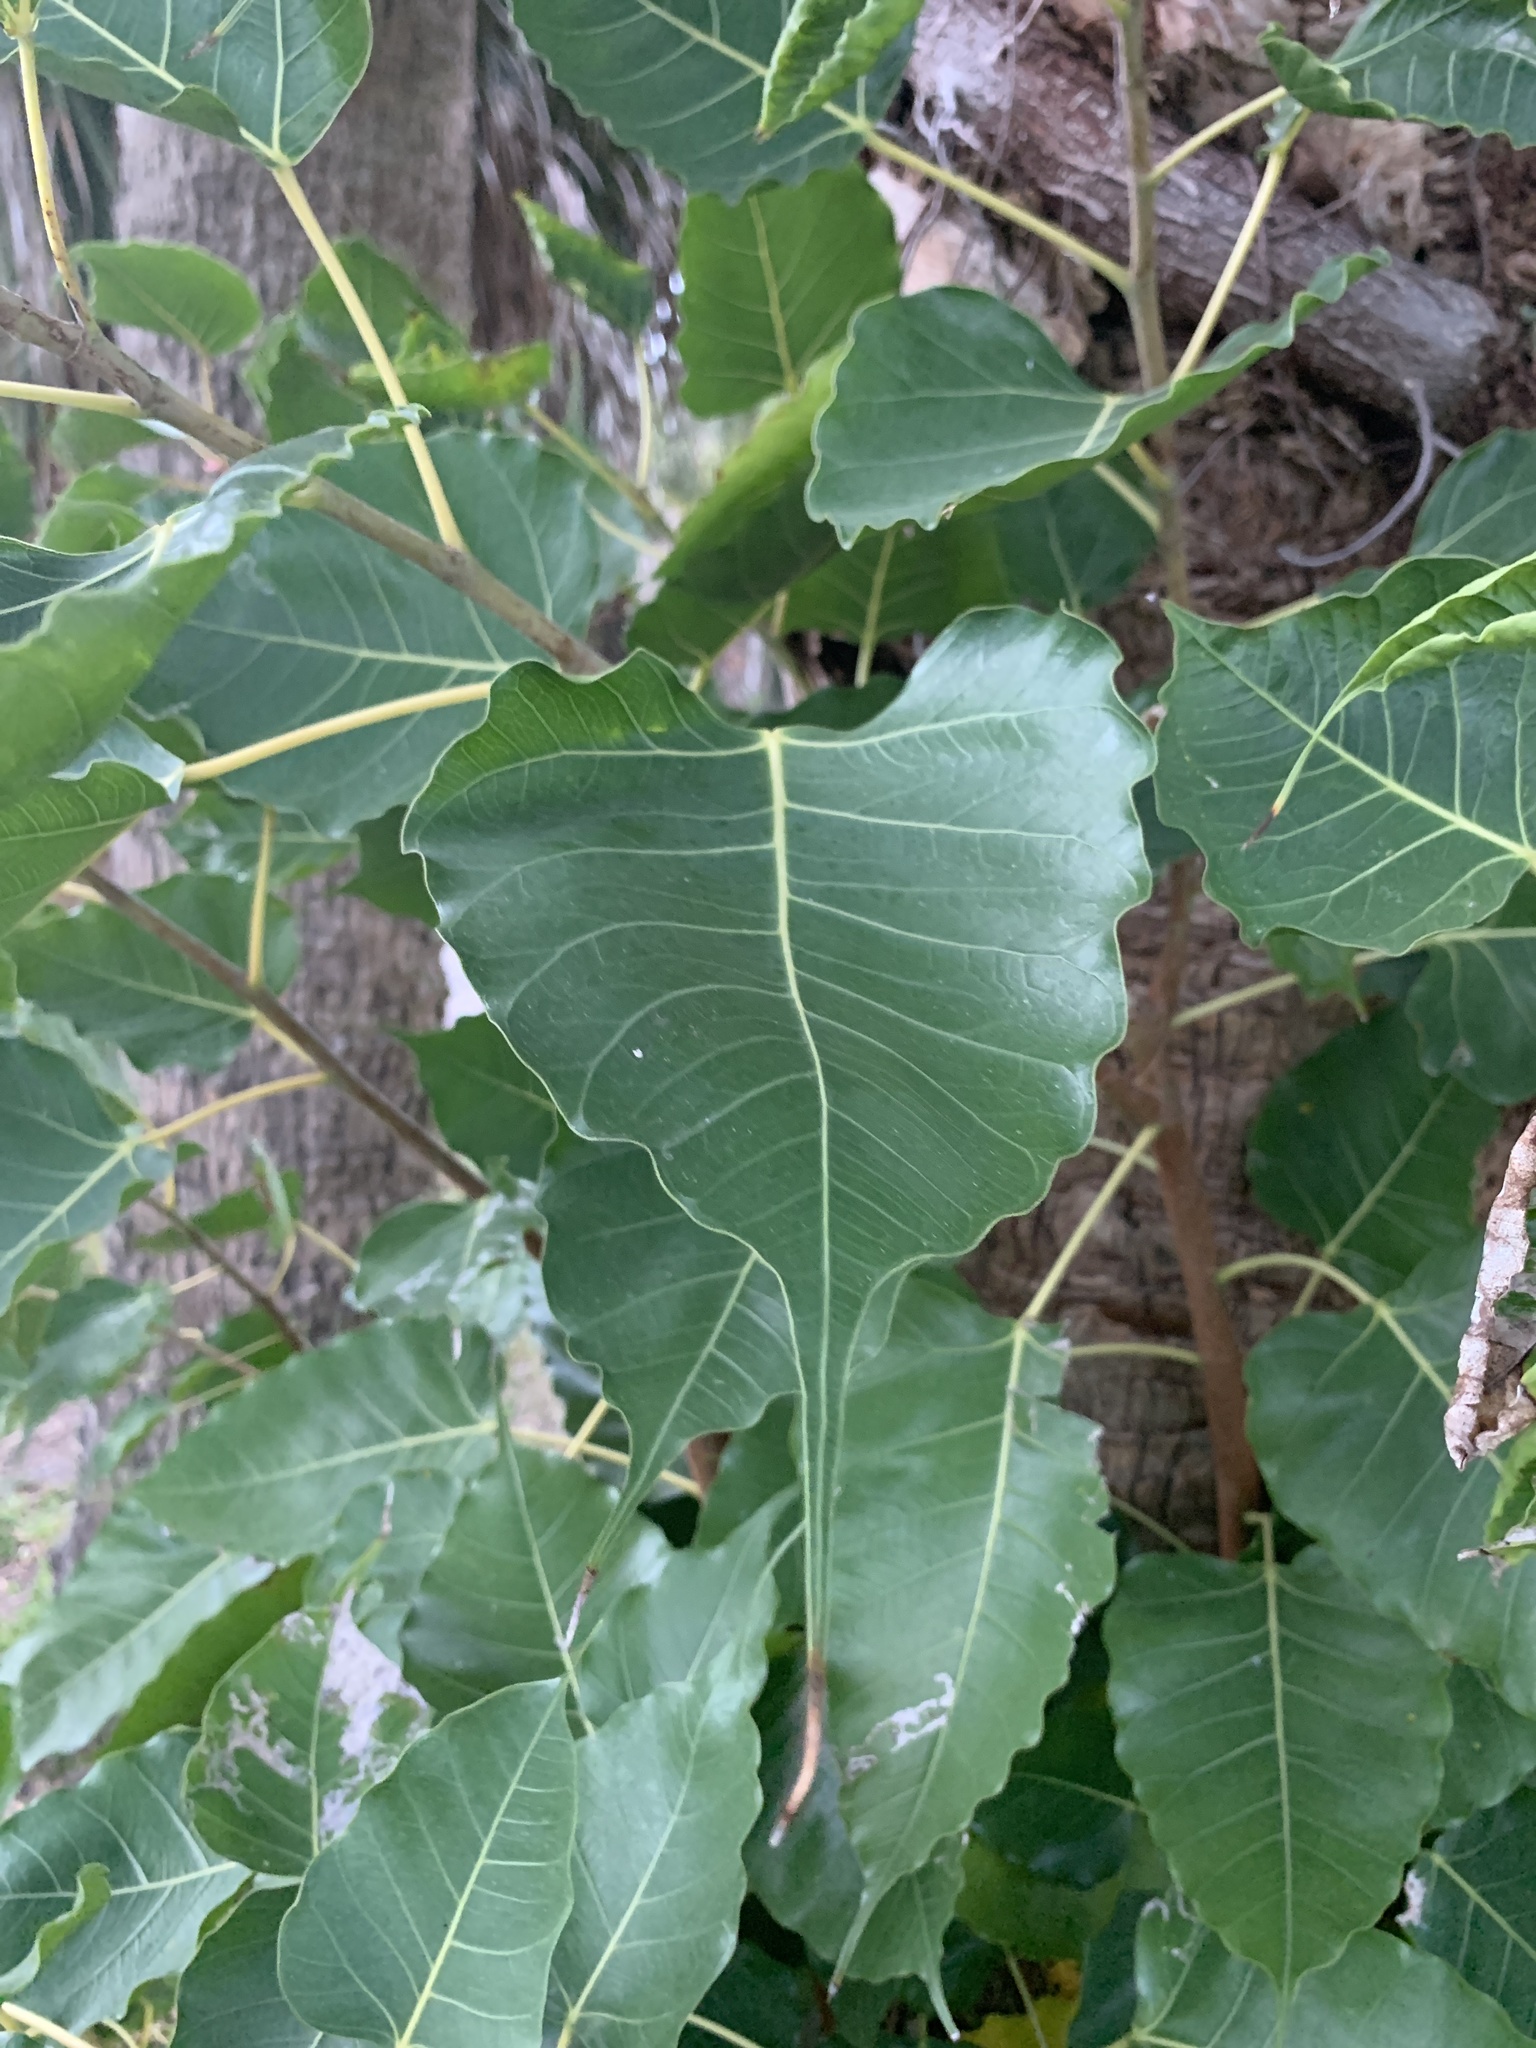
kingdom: Plantae
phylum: Tracheophyta
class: Magnoliopsida
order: Rosales
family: Moraceae
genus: Ficus
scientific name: Ficus religiosa
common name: Bodhi tree
